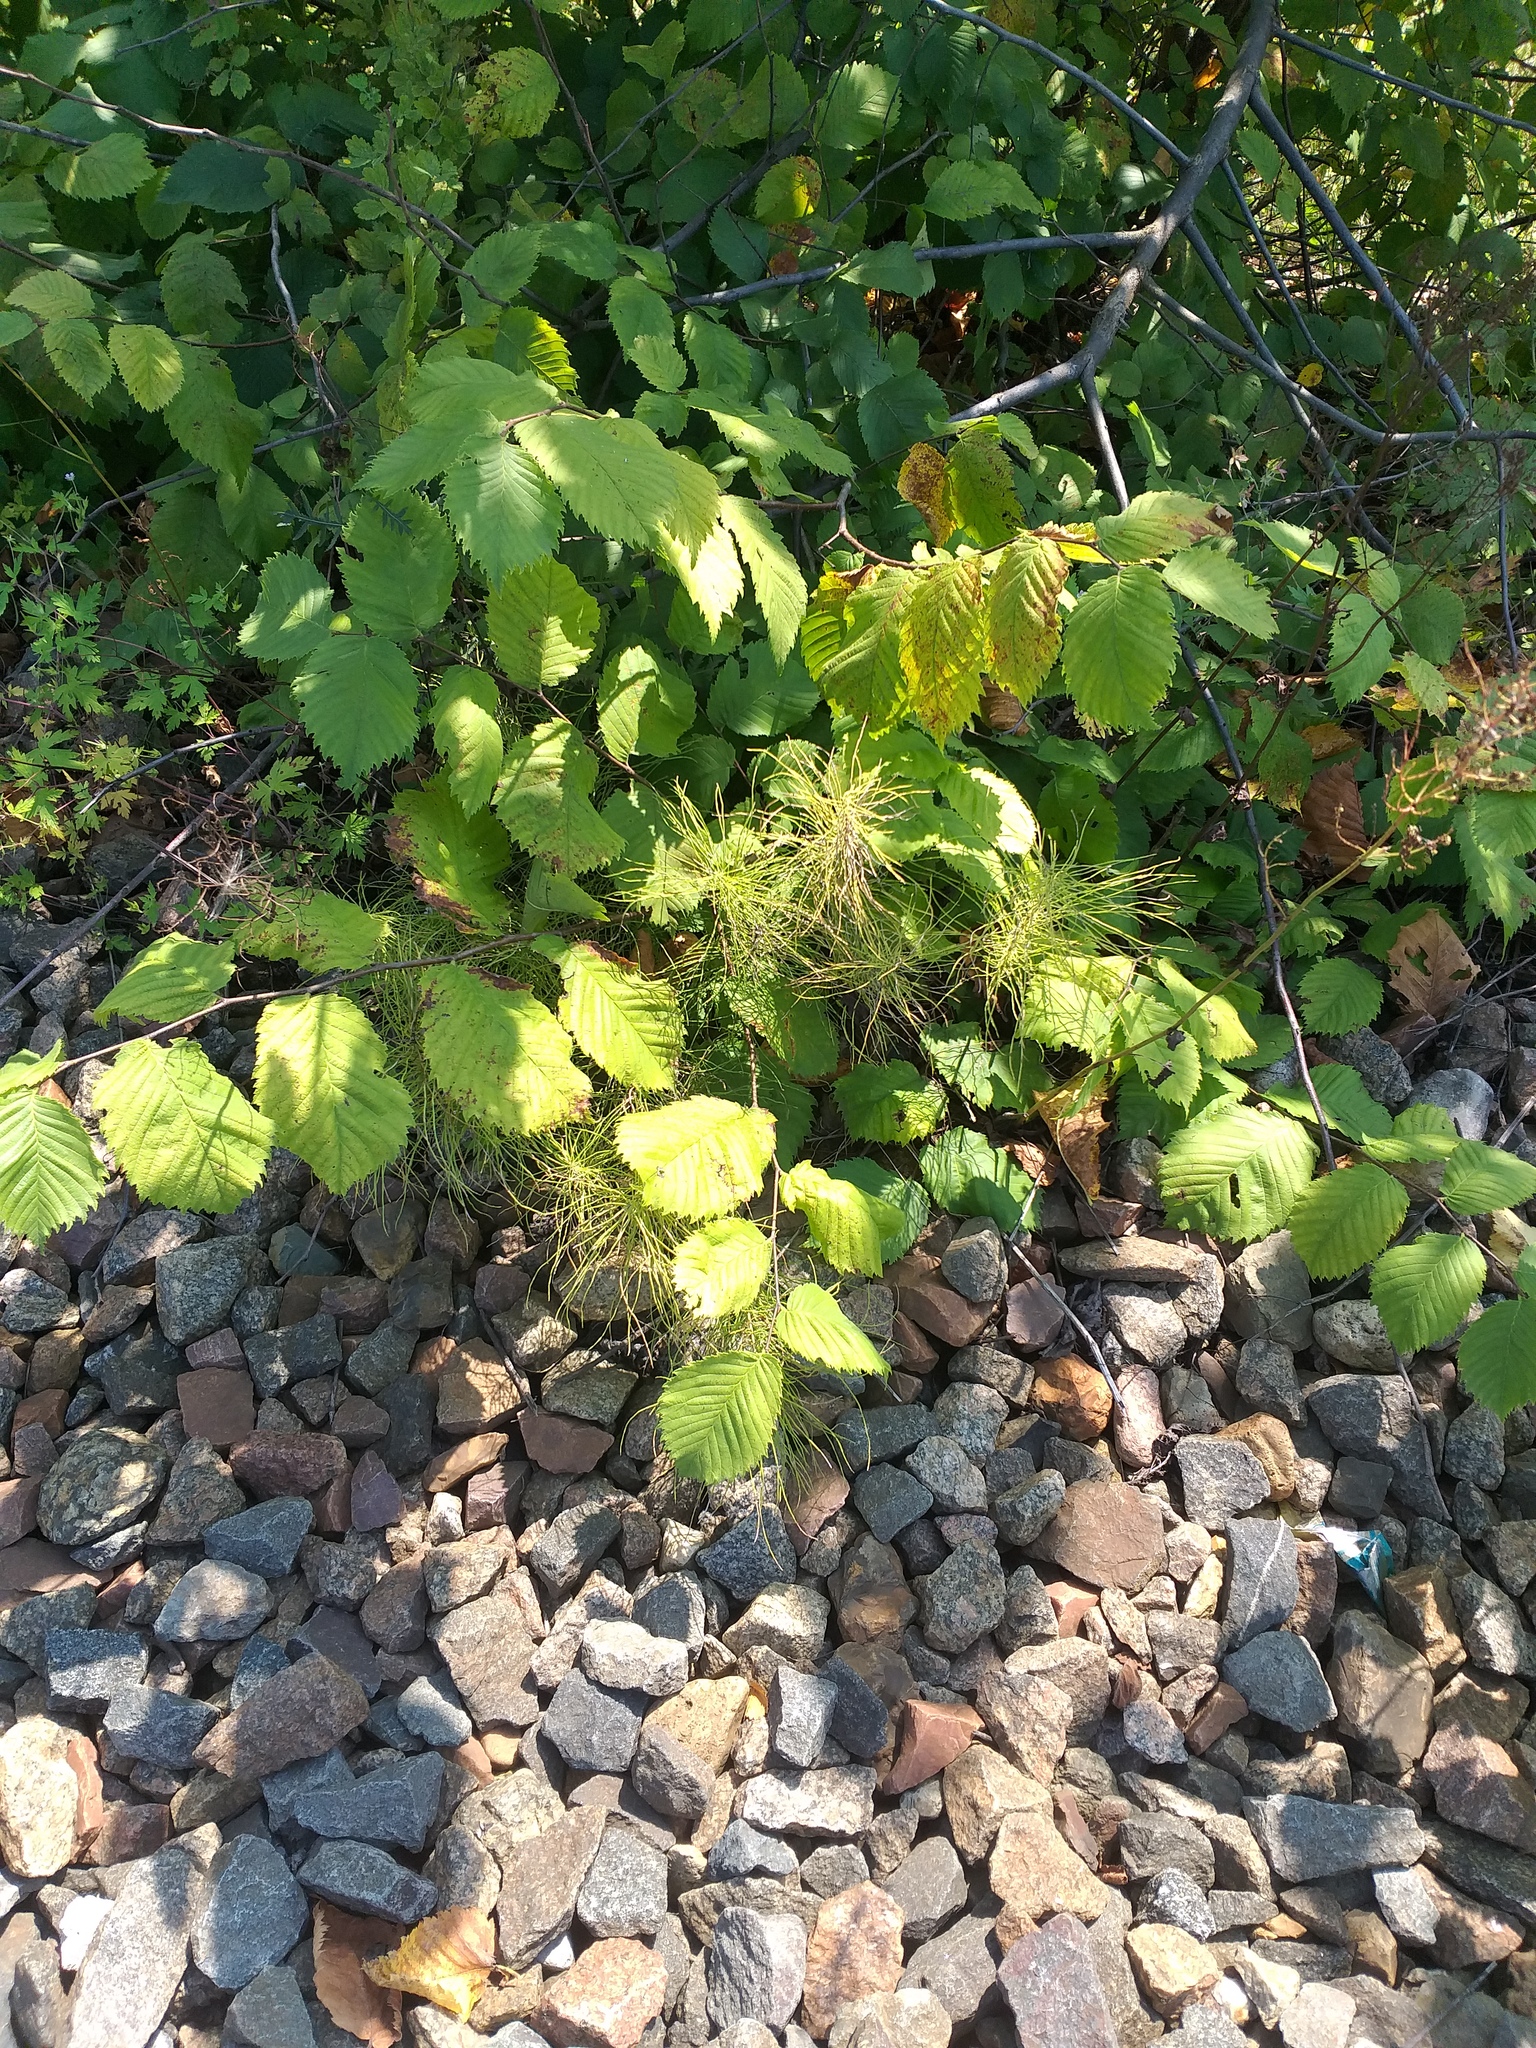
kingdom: Plantae
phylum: Tracheophyta
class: Magnoliopsida
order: Rosales
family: Ulmaceae
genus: Ulmus
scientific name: Ulmus laevis
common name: European white-elm
